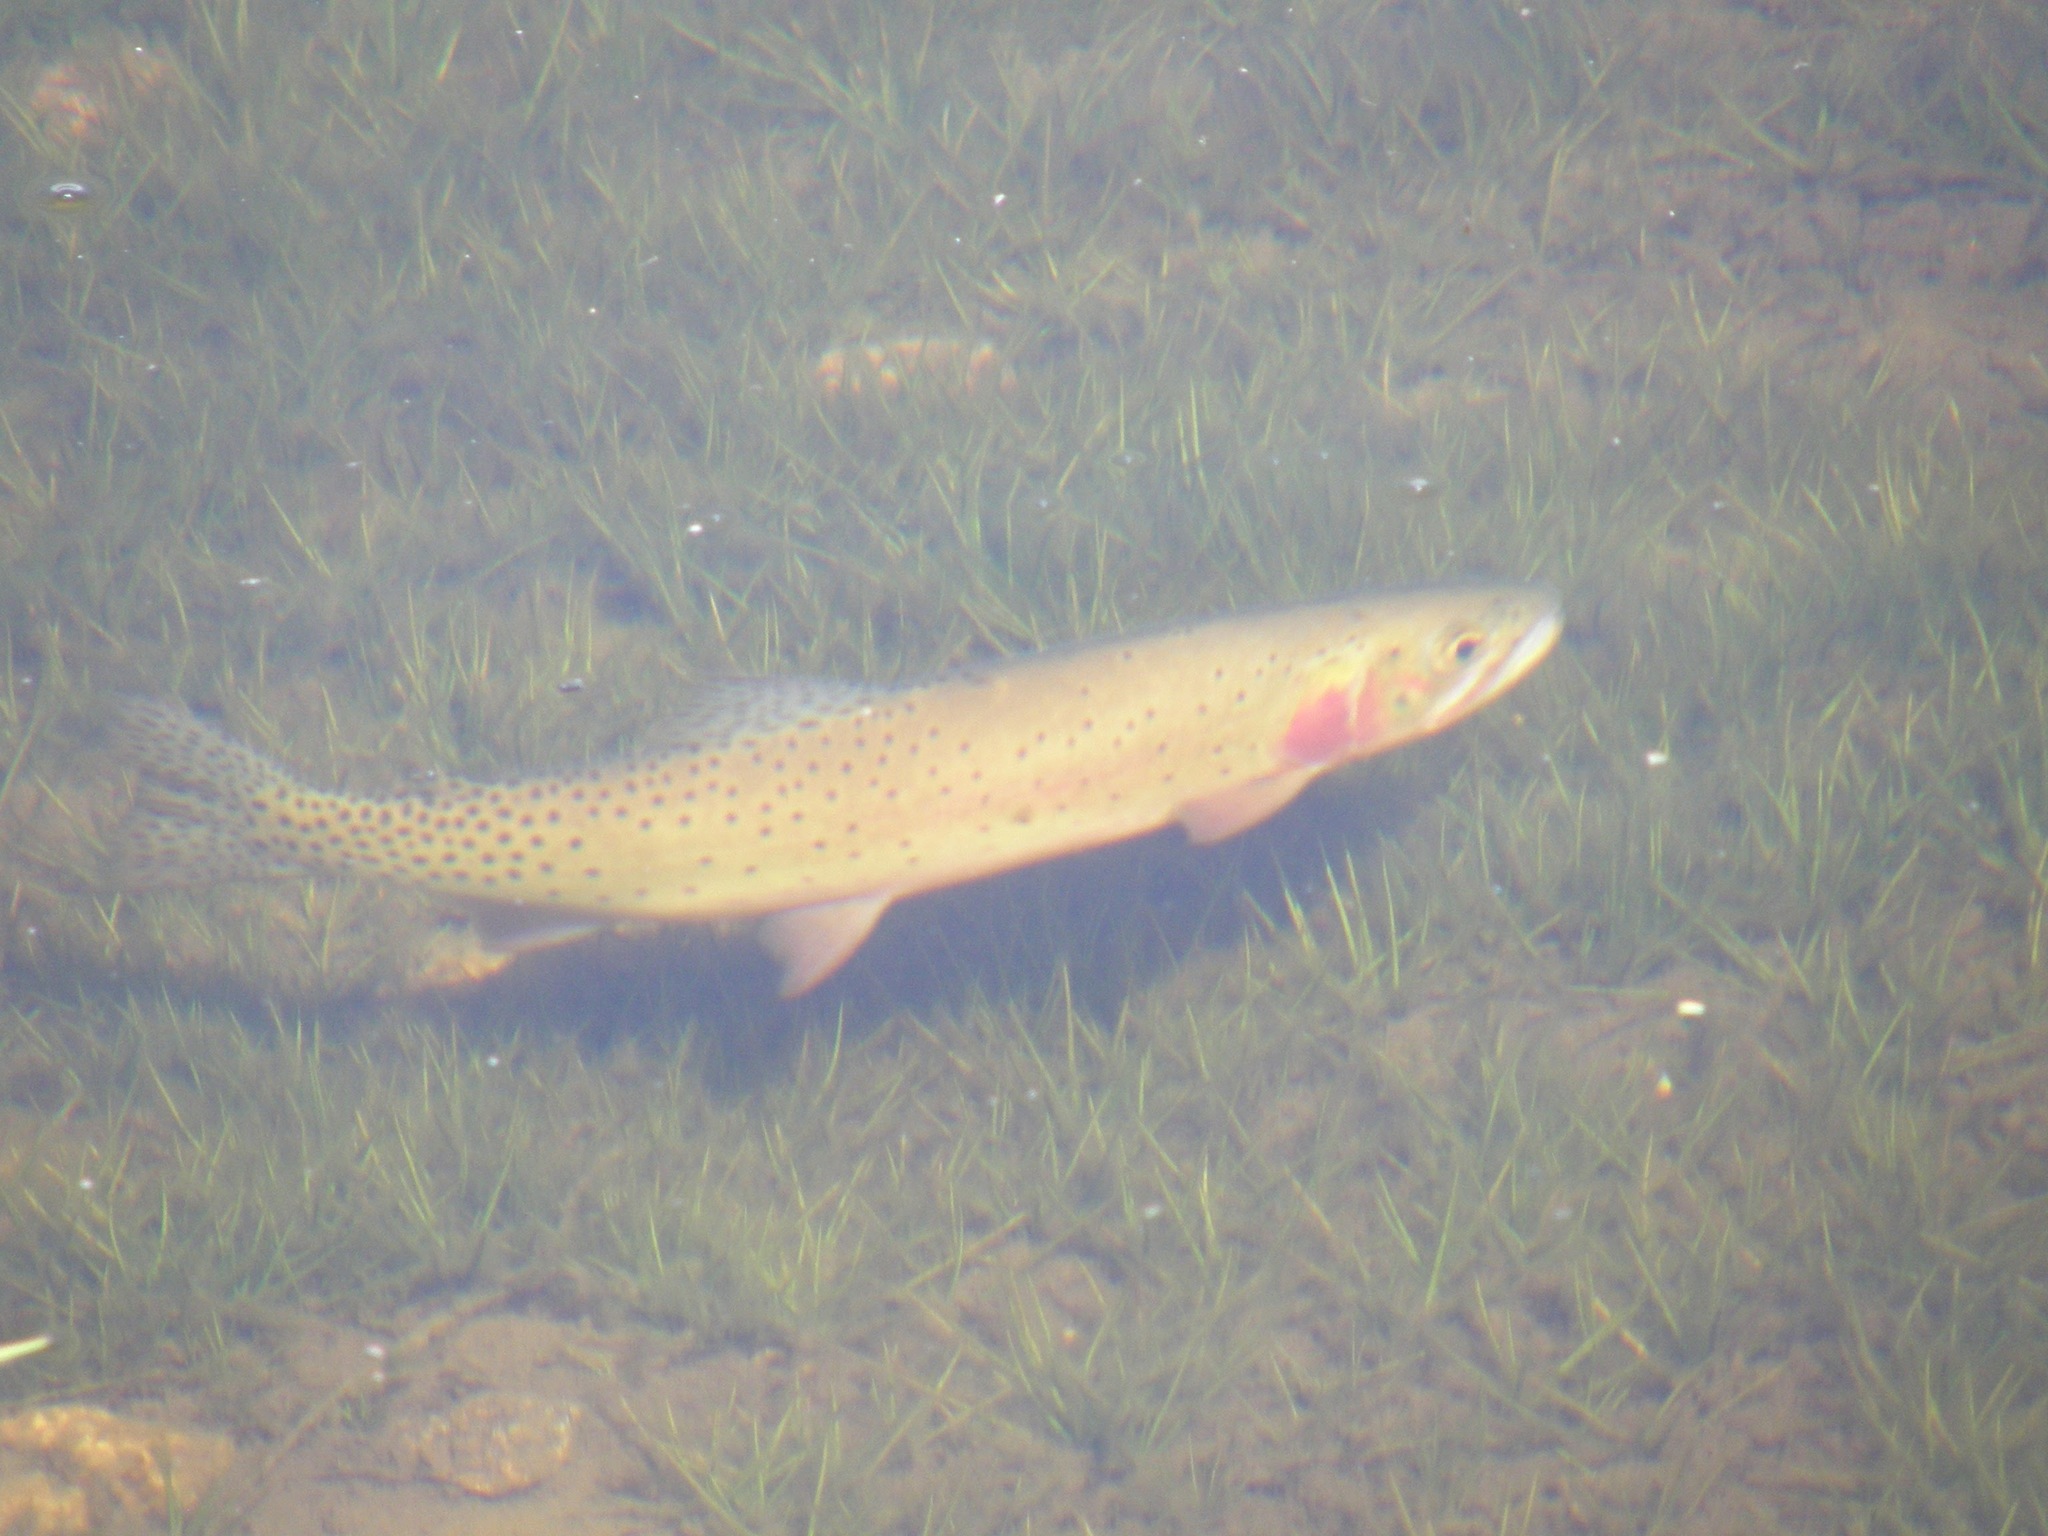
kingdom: Animalia
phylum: Chordata
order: Salmoniformes
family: Salmonidae
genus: Oncorhynchus
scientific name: Oncorhynchus virginalis
